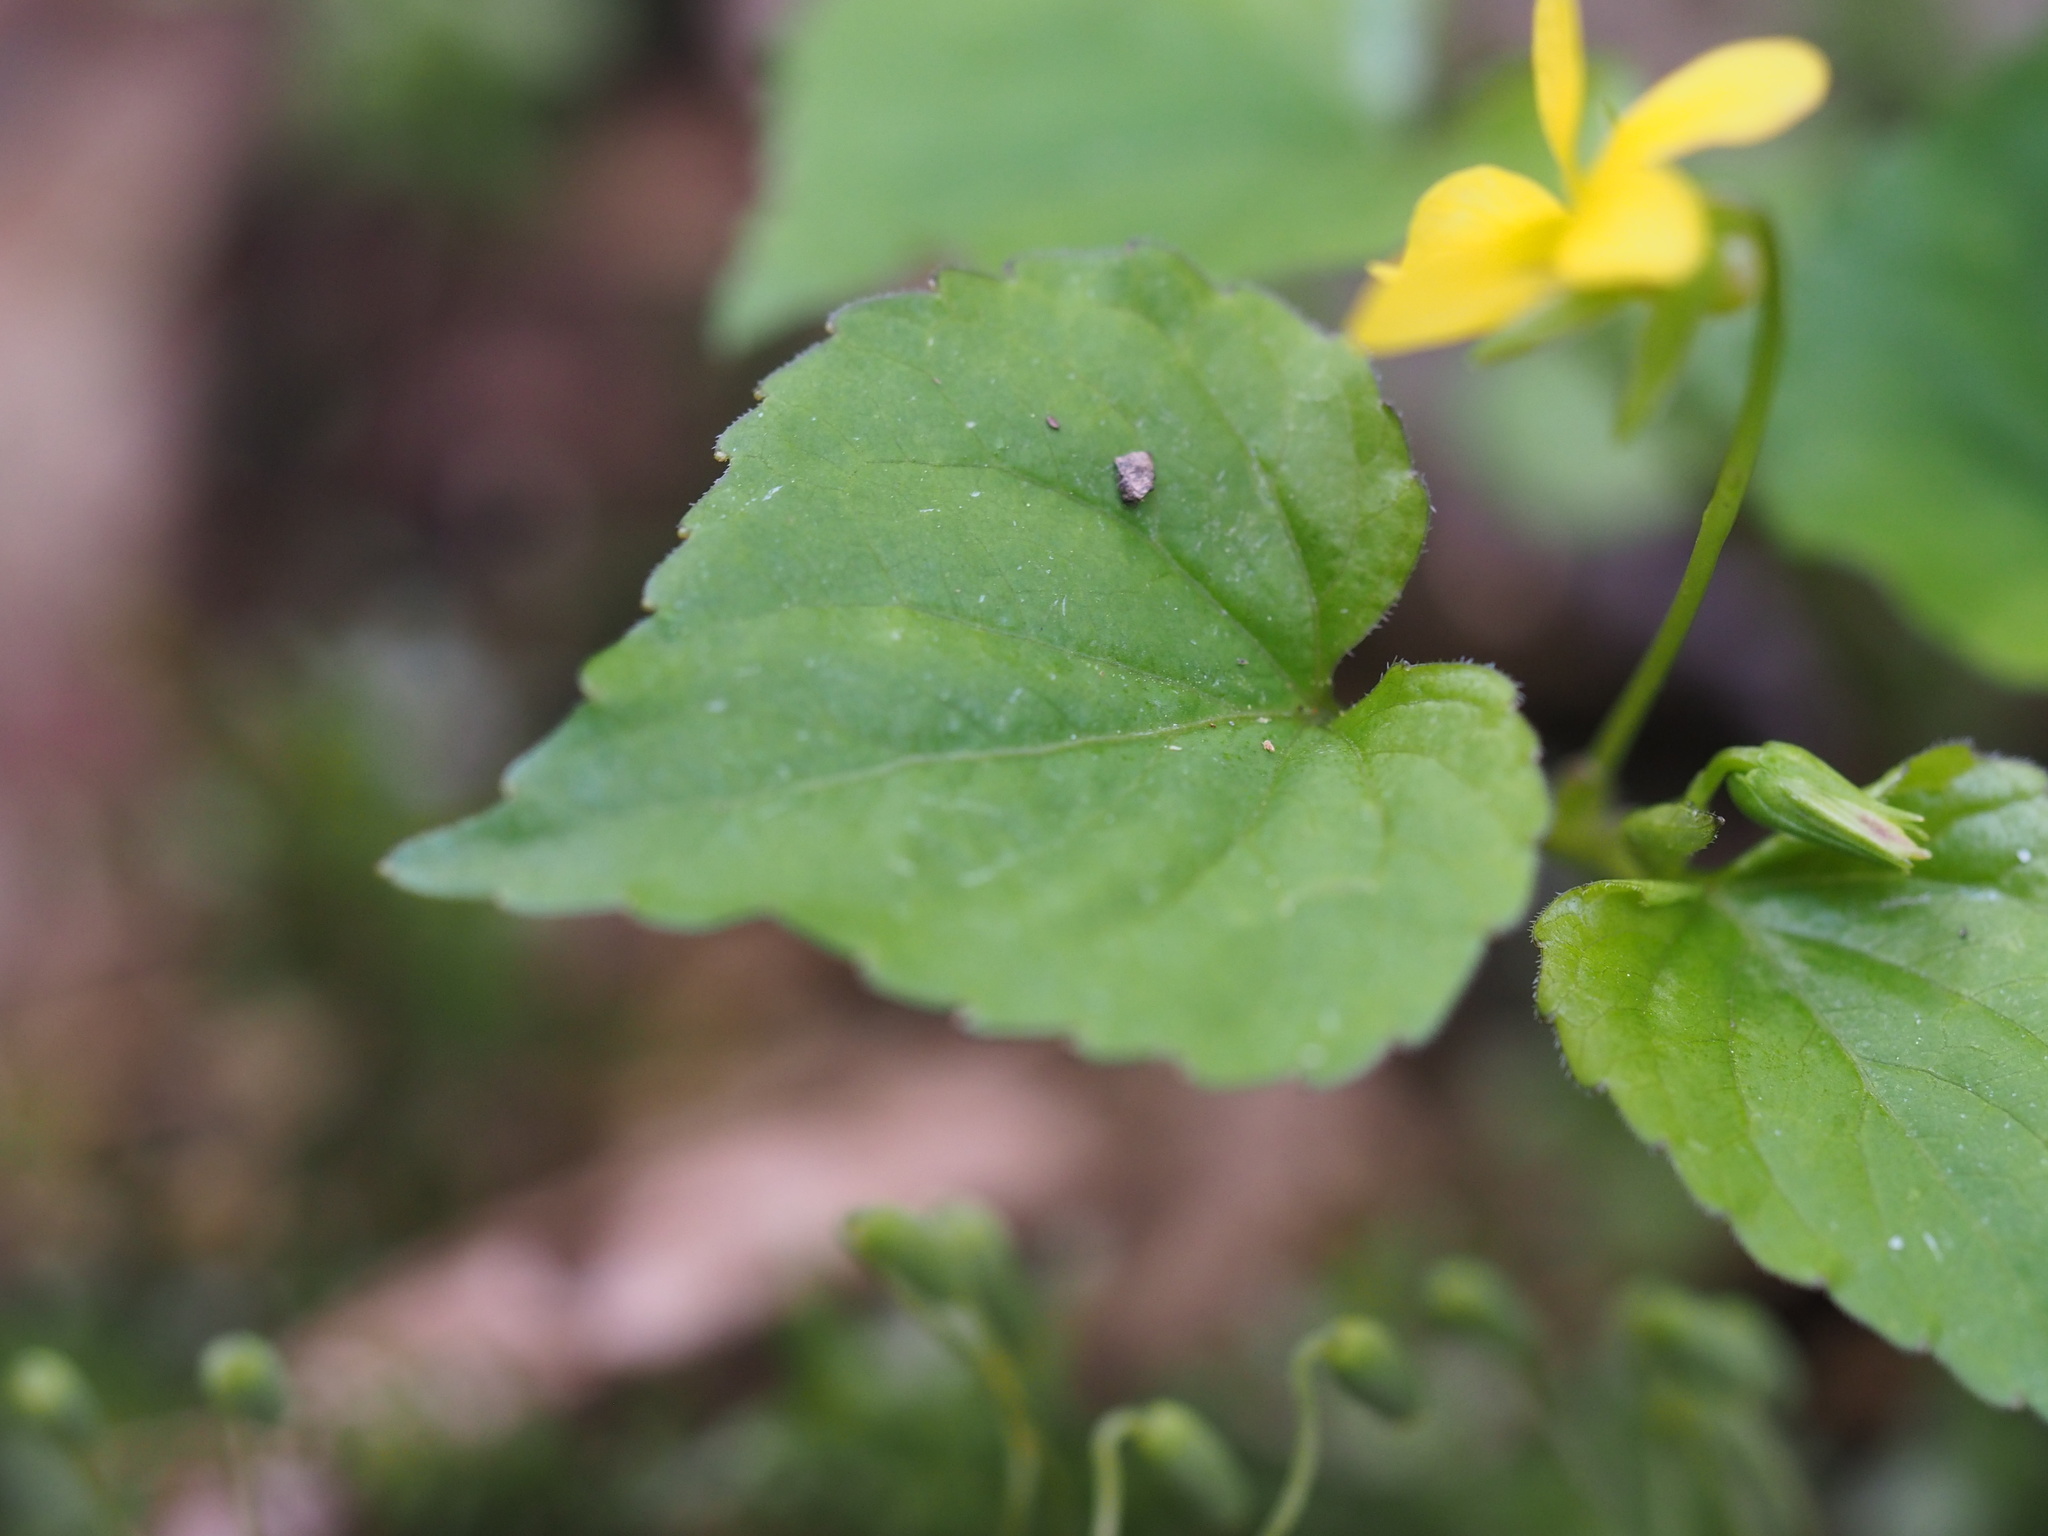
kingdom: Plantae
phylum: Tracheophyta
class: Magnoliopsida
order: Malpighiales
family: Violaceae
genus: Viola
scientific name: Viola glabella
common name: Stream violet
